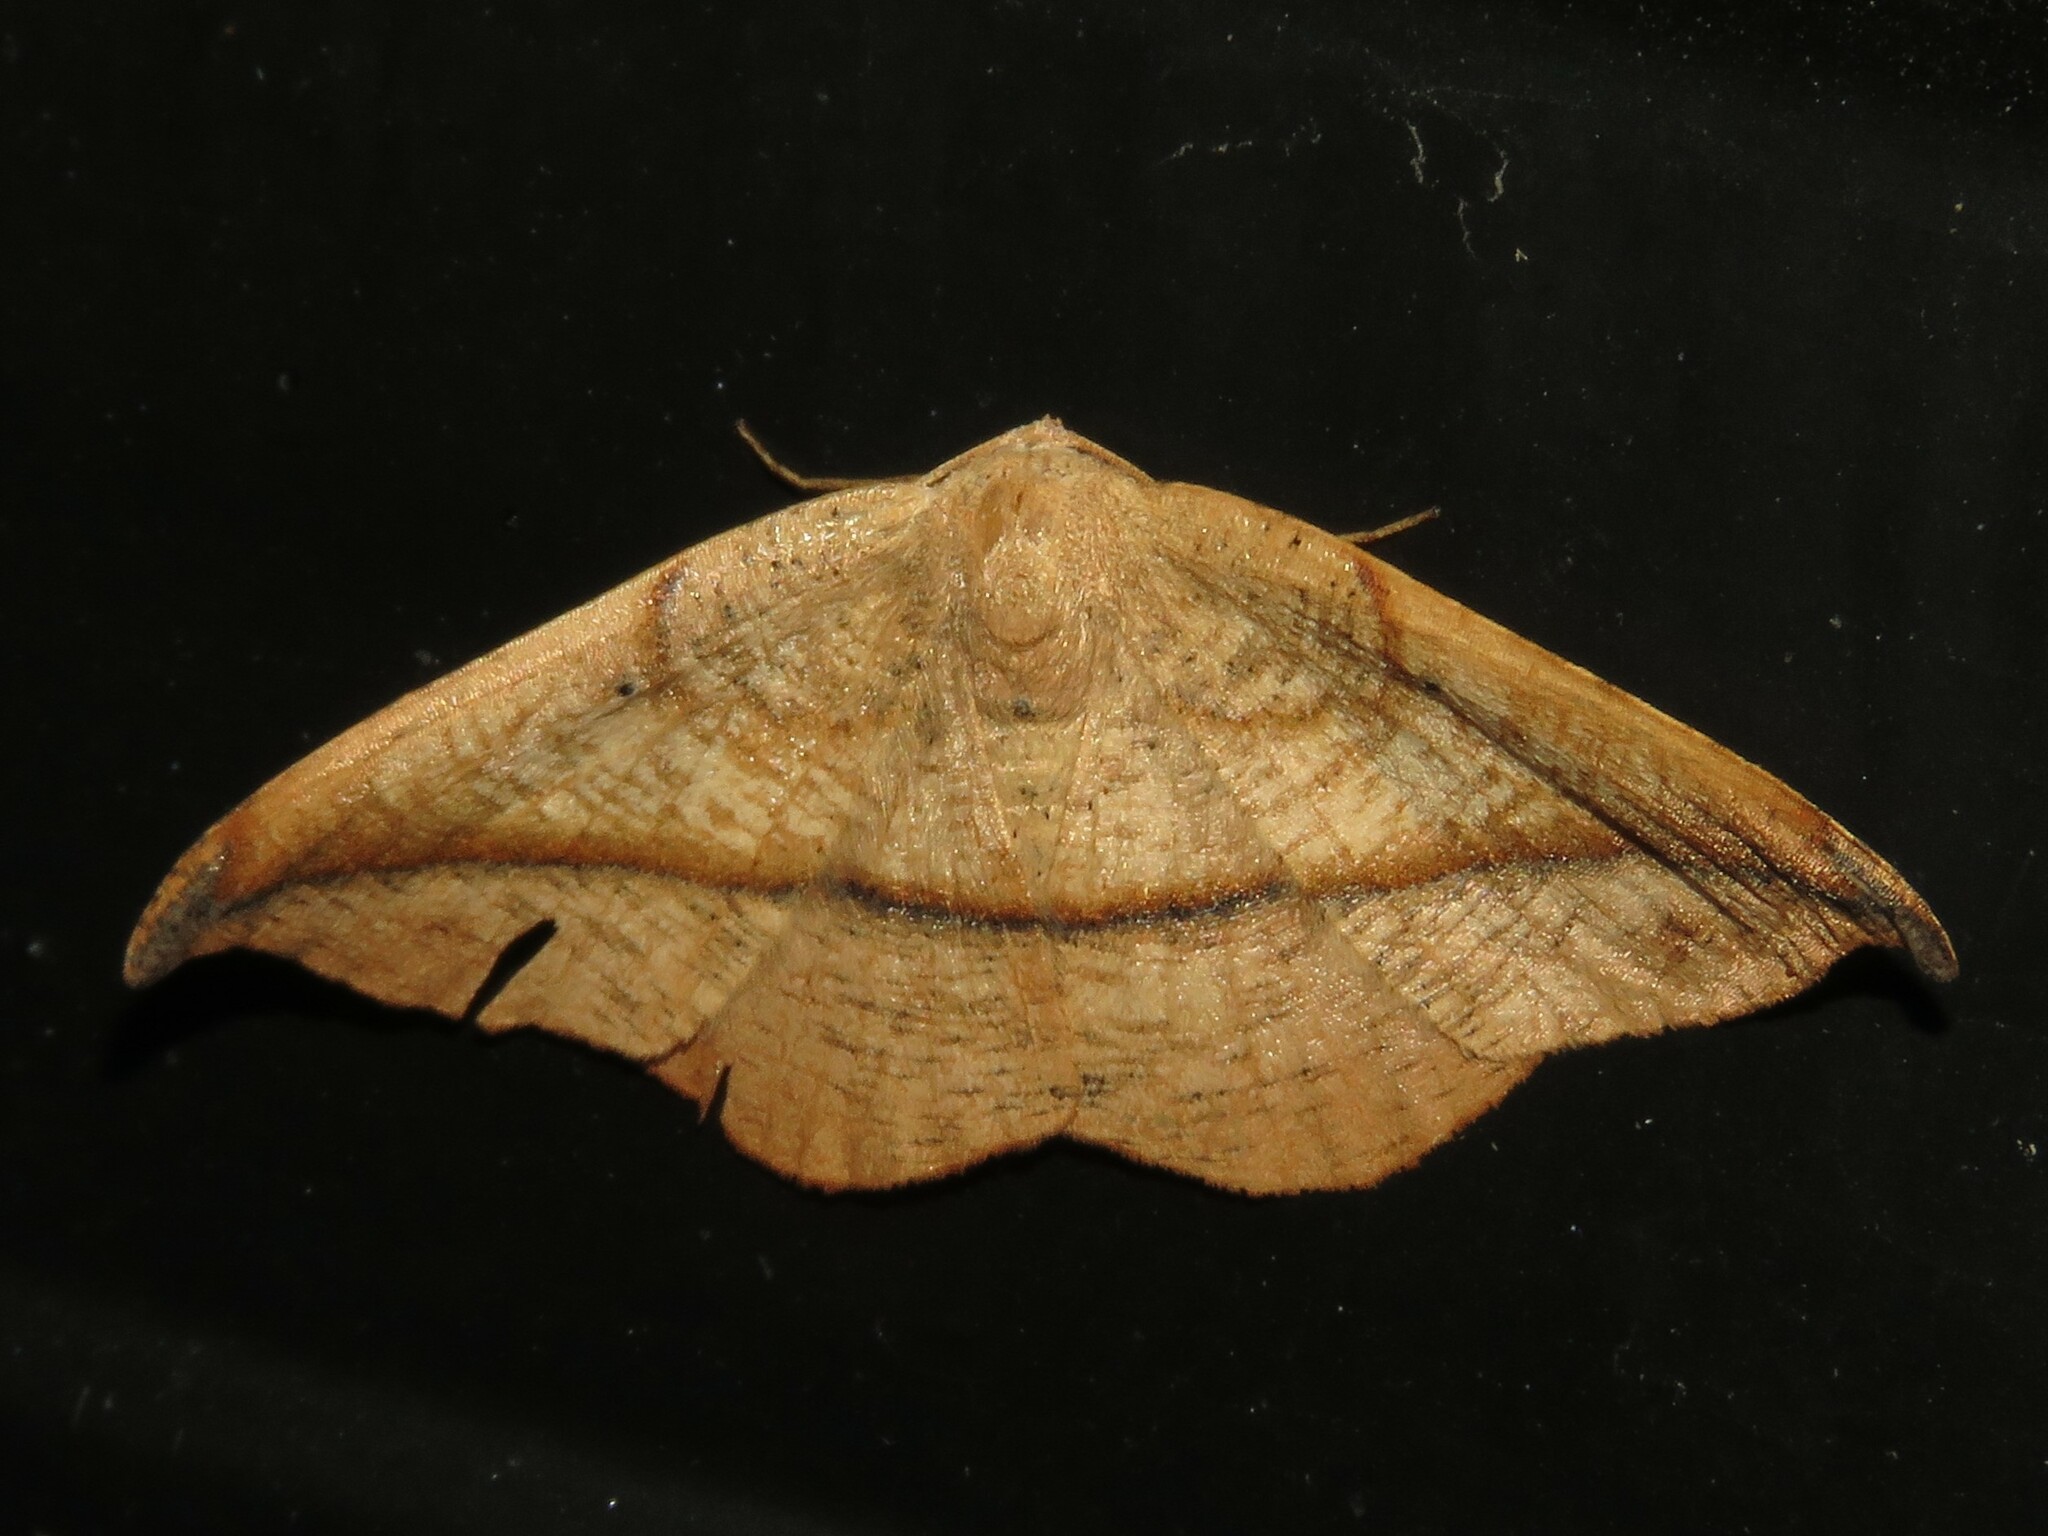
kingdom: Animalia
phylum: Arthropoda
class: Insecta
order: Lepidoptera
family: Geometridae
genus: Patalene
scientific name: Patalene olyzonaria
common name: Juniper geometer moth
